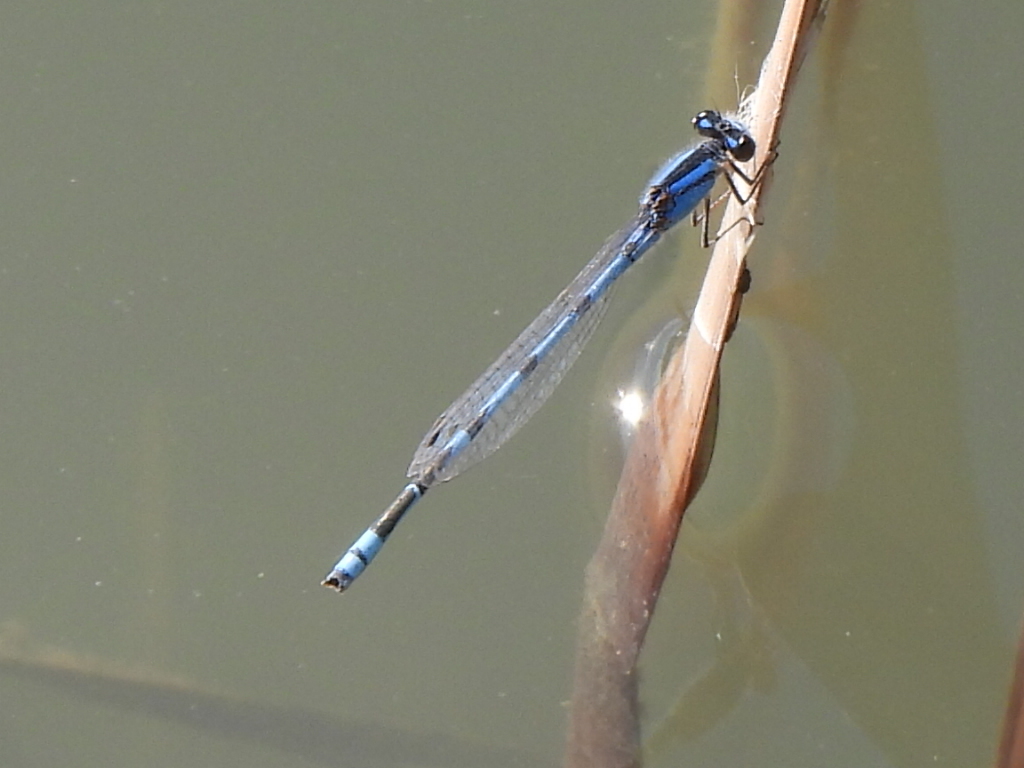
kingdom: Animalia
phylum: Arthropoda
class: Insecta
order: Odonata
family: Coenagrionidae
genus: Enallagma
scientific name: Enallagma civile
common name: Damselfly
